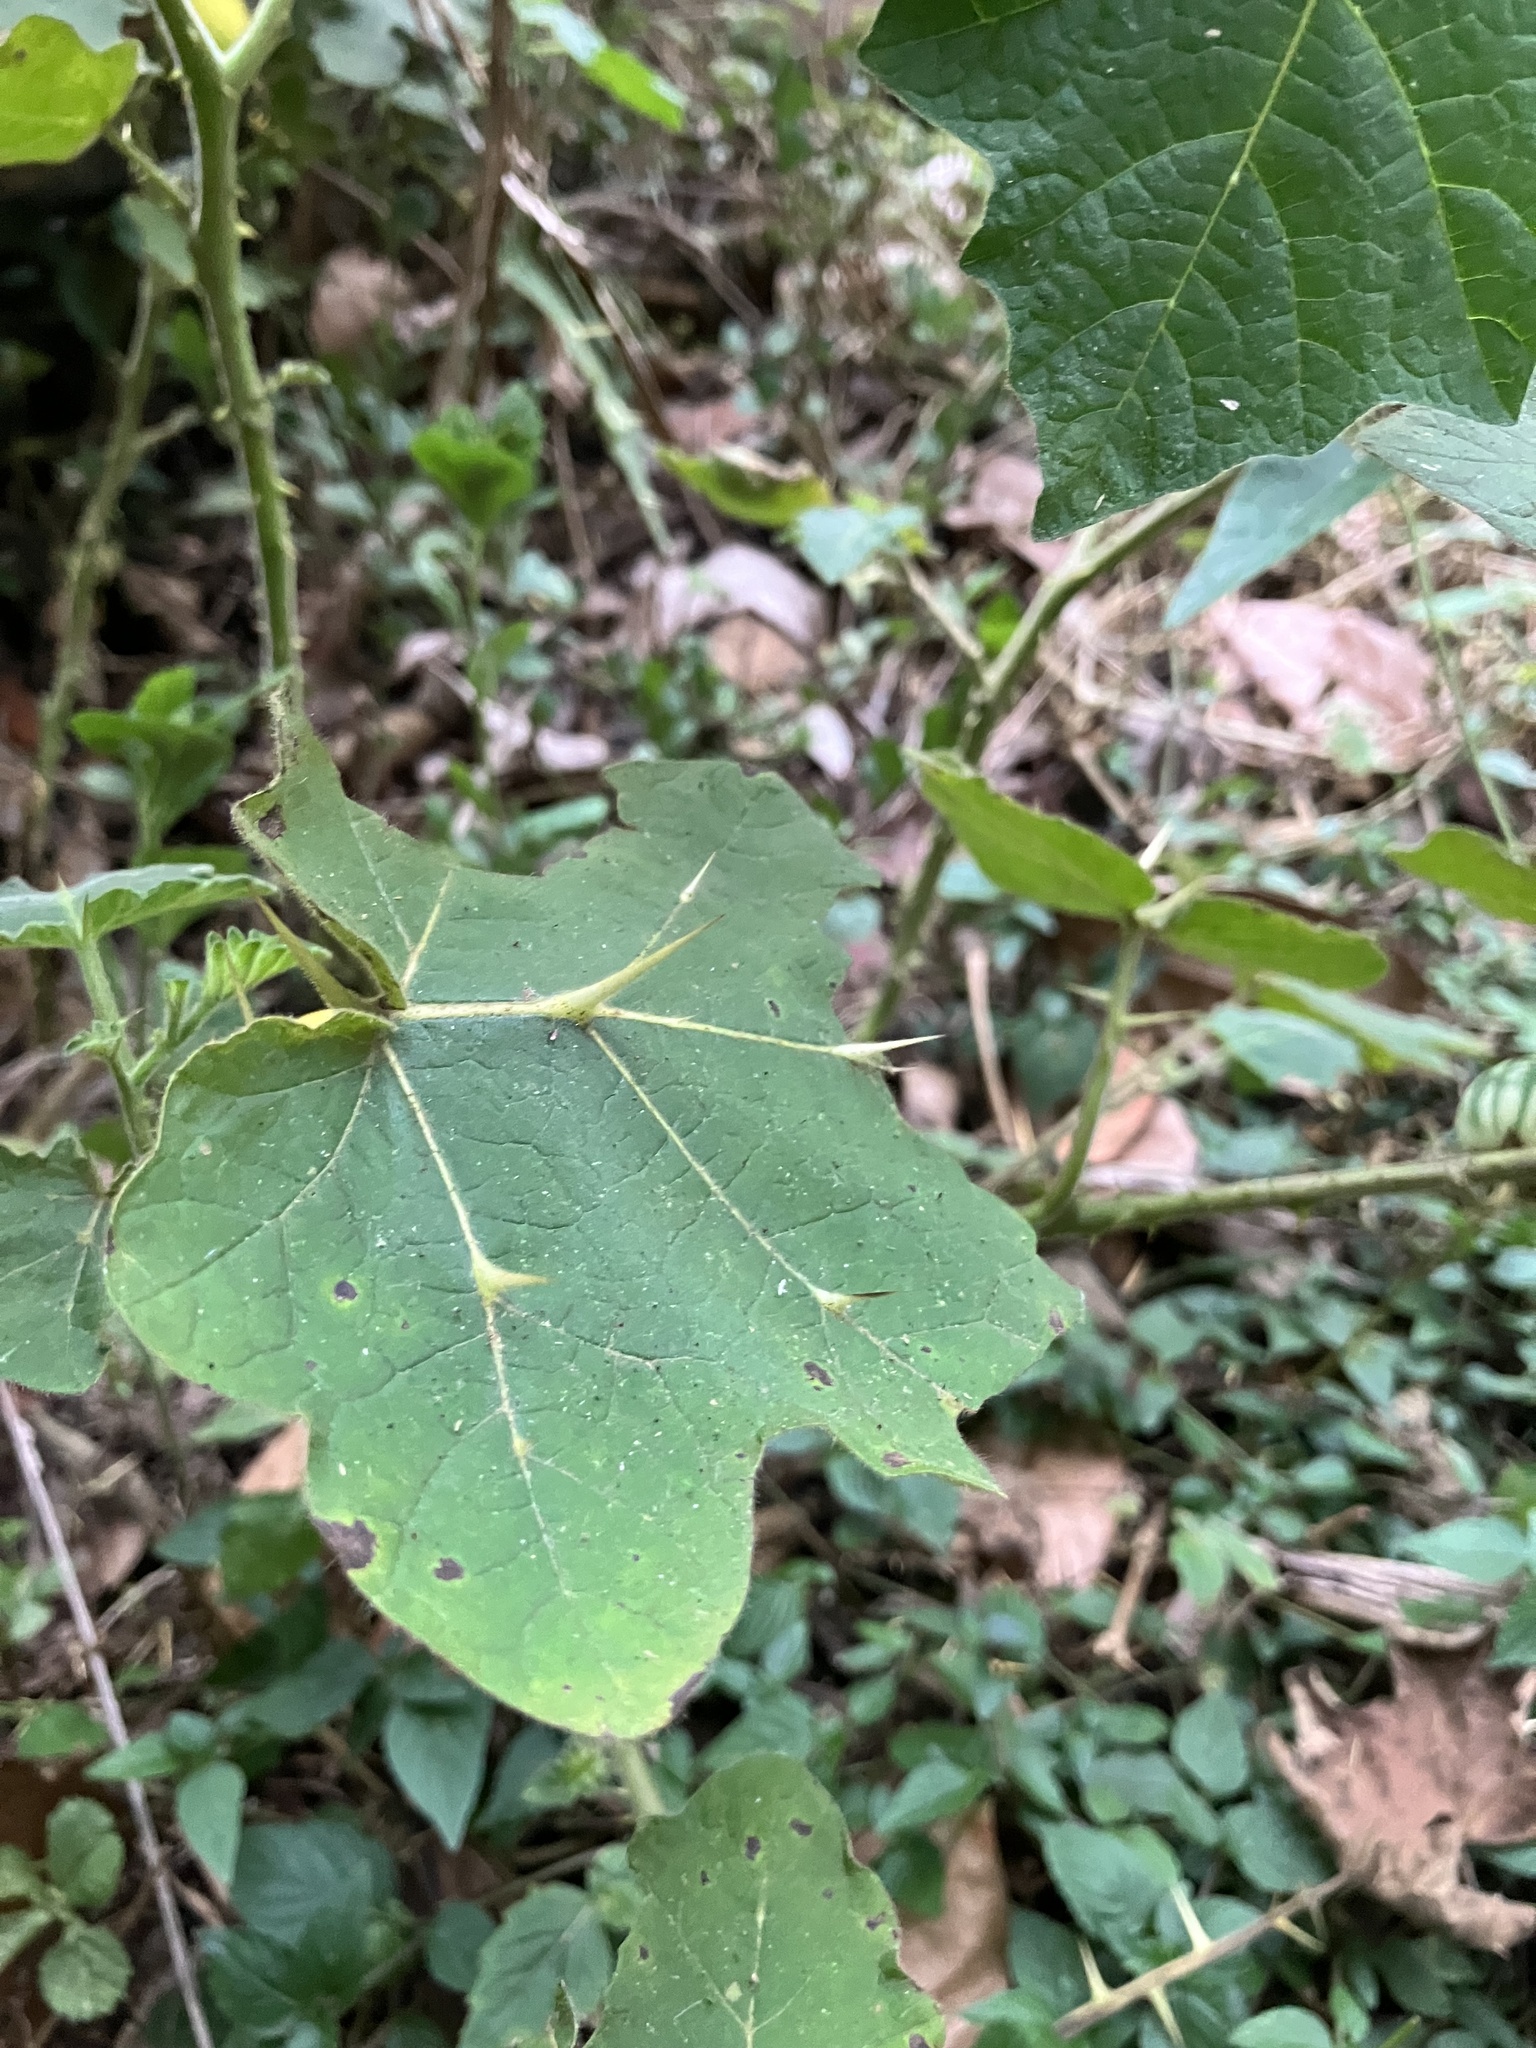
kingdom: Plantae
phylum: Tracheophyta
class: Magnoliopsida
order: Solanales
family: Solanaceae
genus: Solanum
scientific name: Solanum viarum
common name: Tropical soda apple
